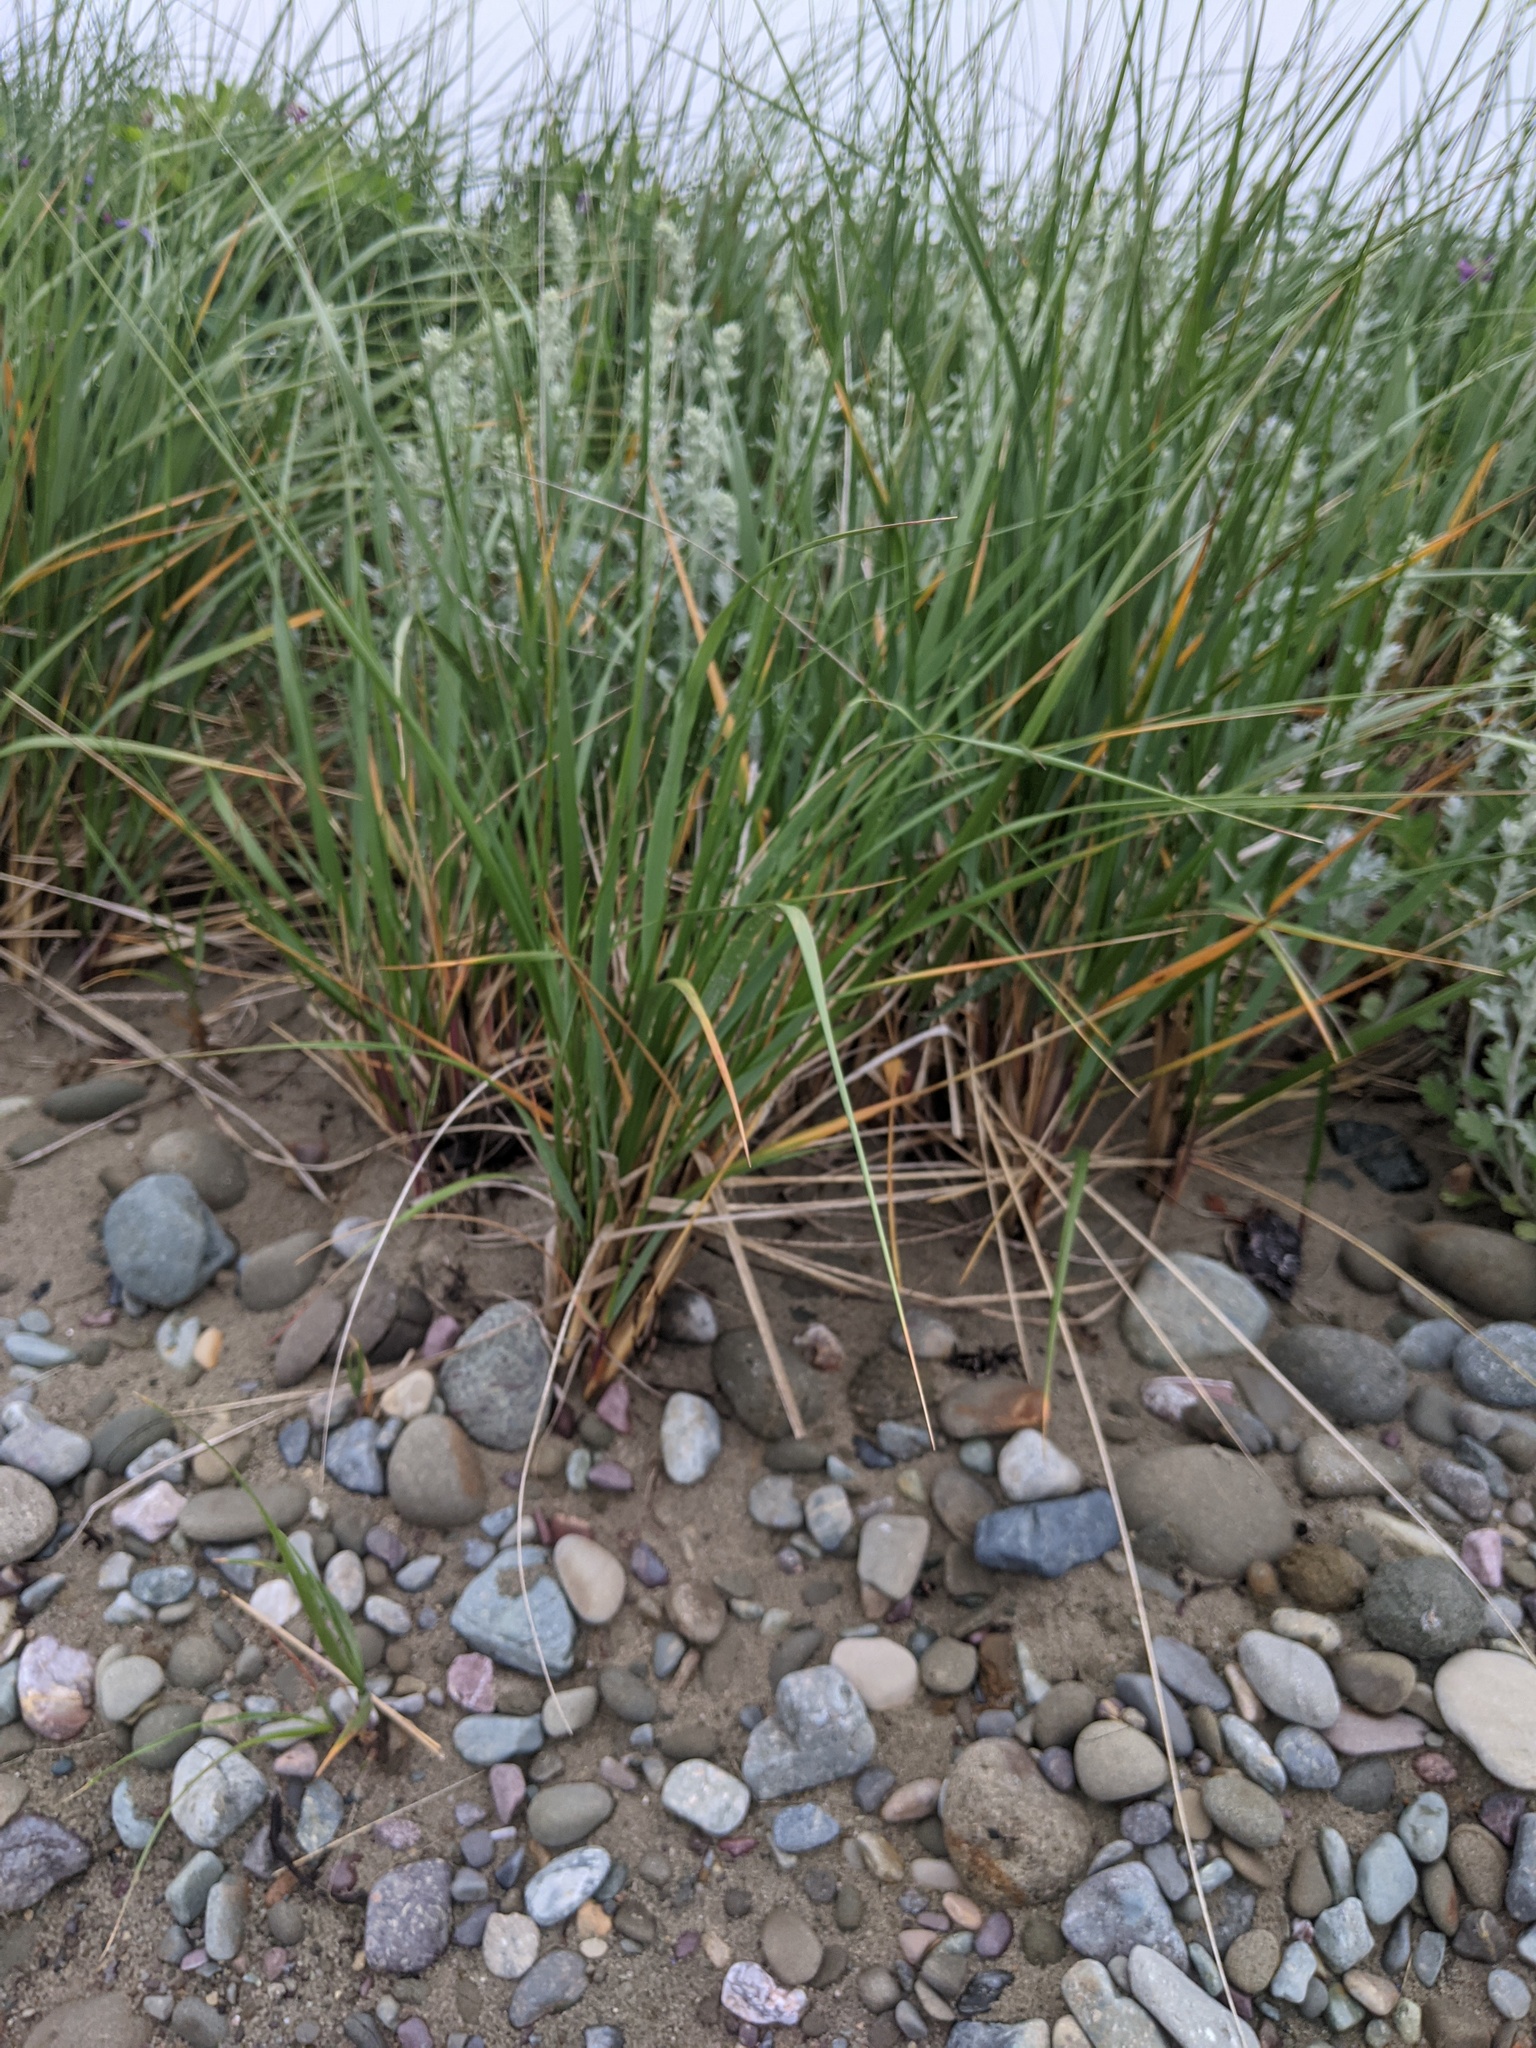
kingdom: Plantae
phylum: Tracheophyta
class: Liliopsida
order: Poales
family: Poaceae
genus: Calamagrostis
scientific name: Calamagrostis breviligulata
